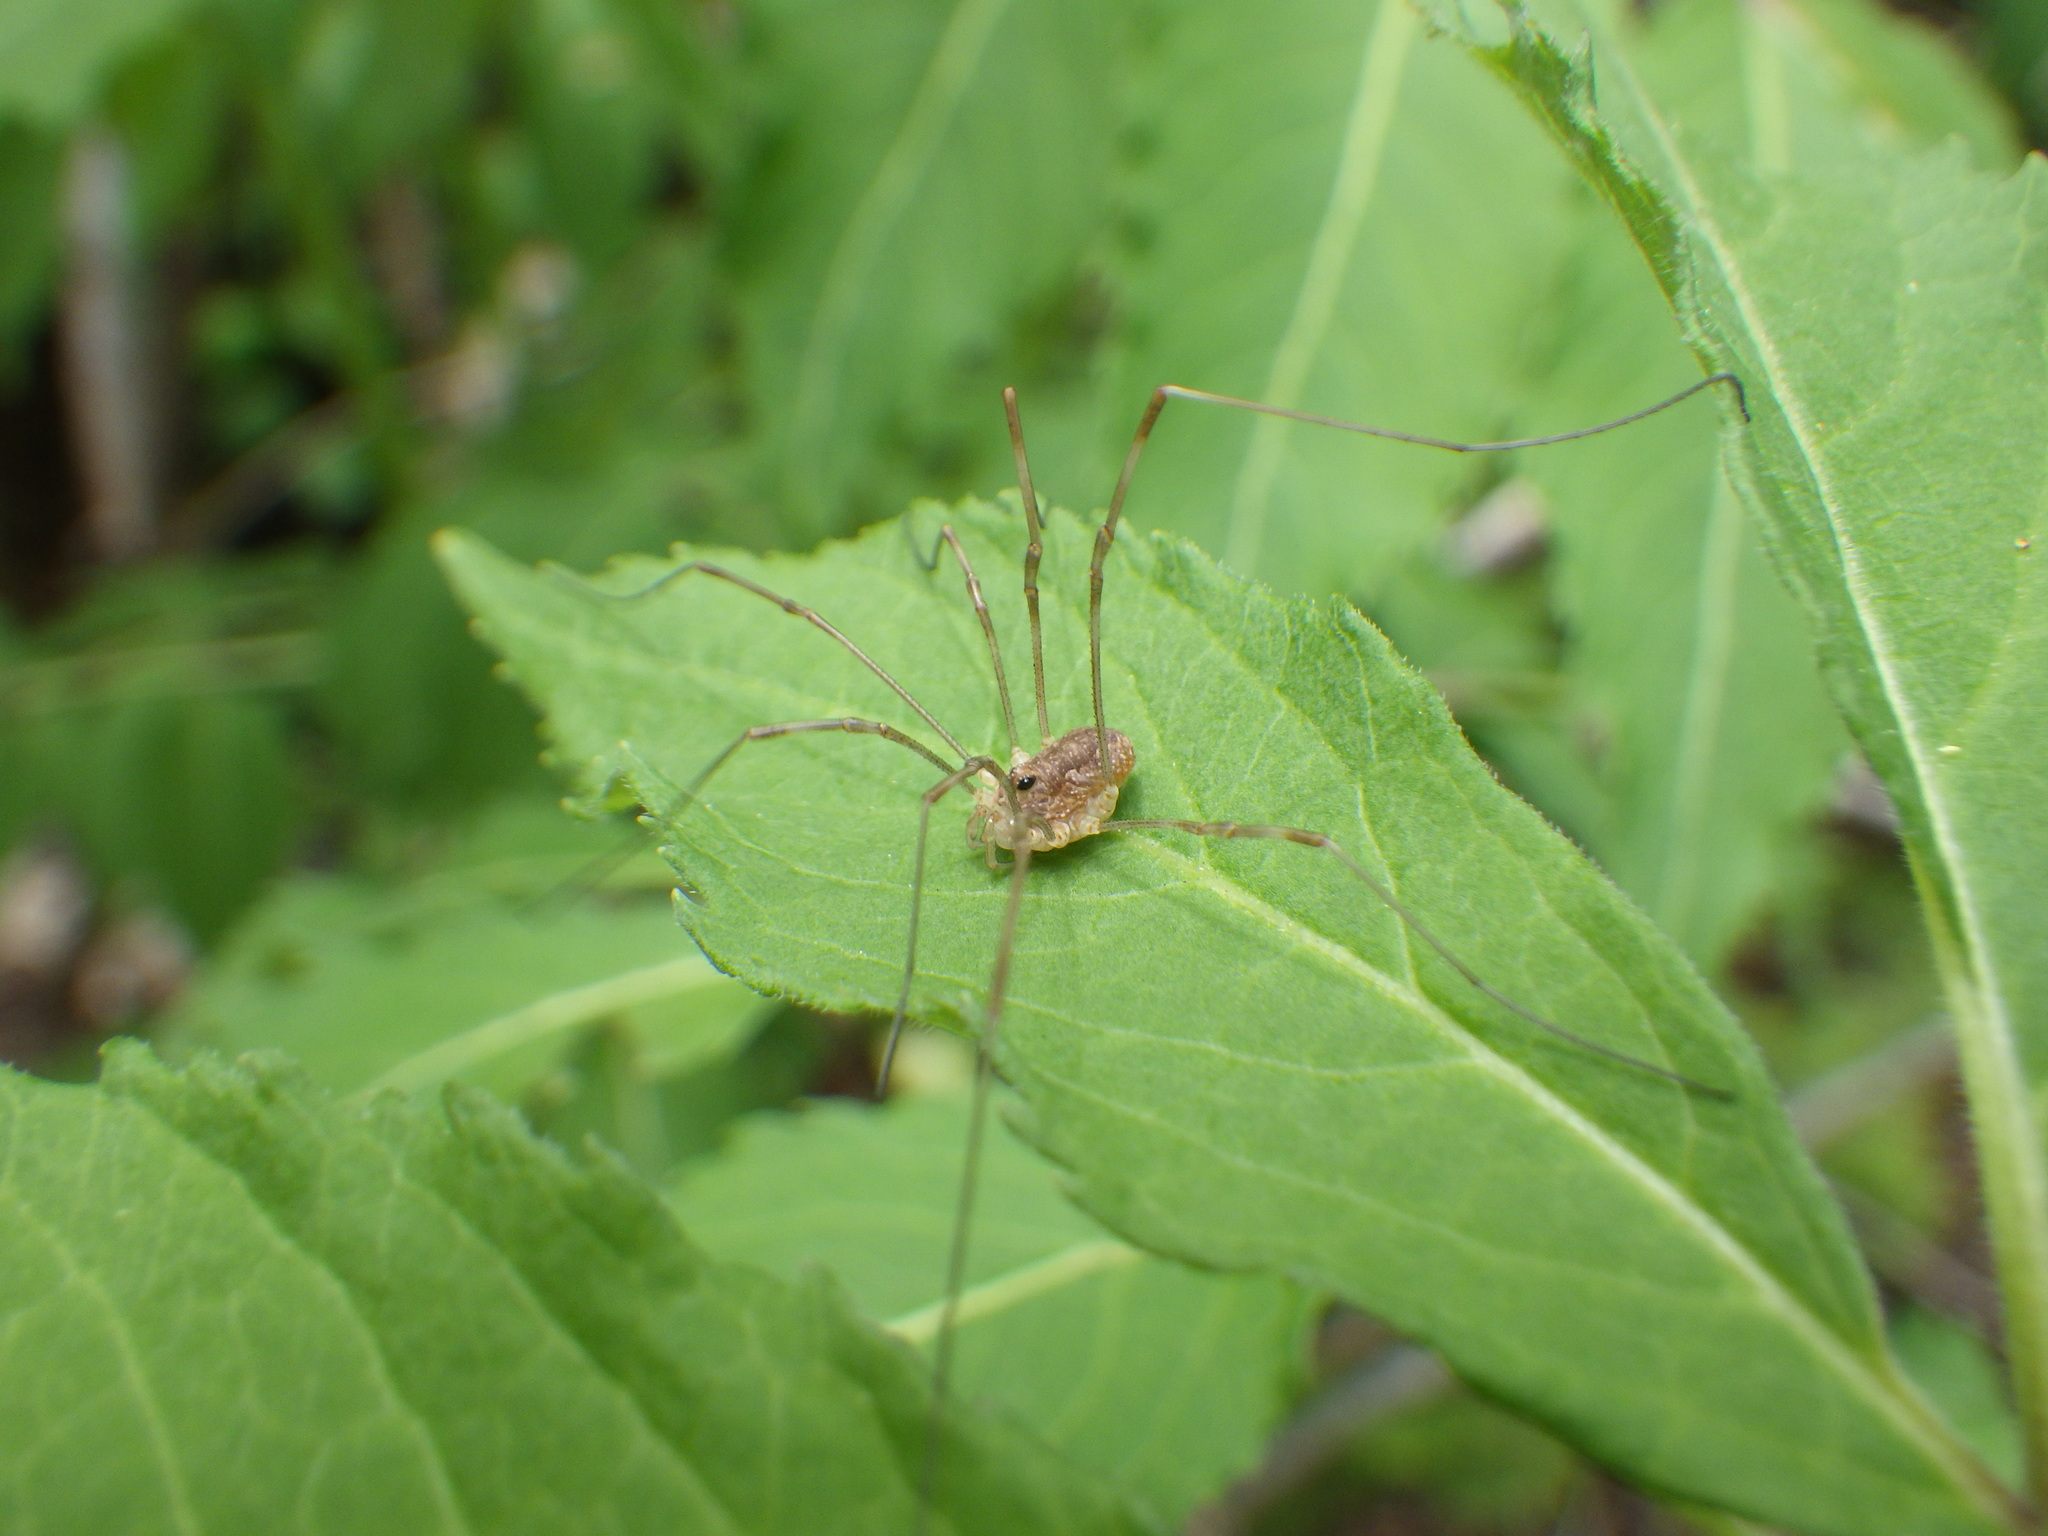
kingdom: Animalia
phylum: Arthropoda
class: Arachnida
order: Opiliones
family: Phalangiidae
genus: Rilaena
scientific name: Rilaena triangularis
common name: Spring harvestman
